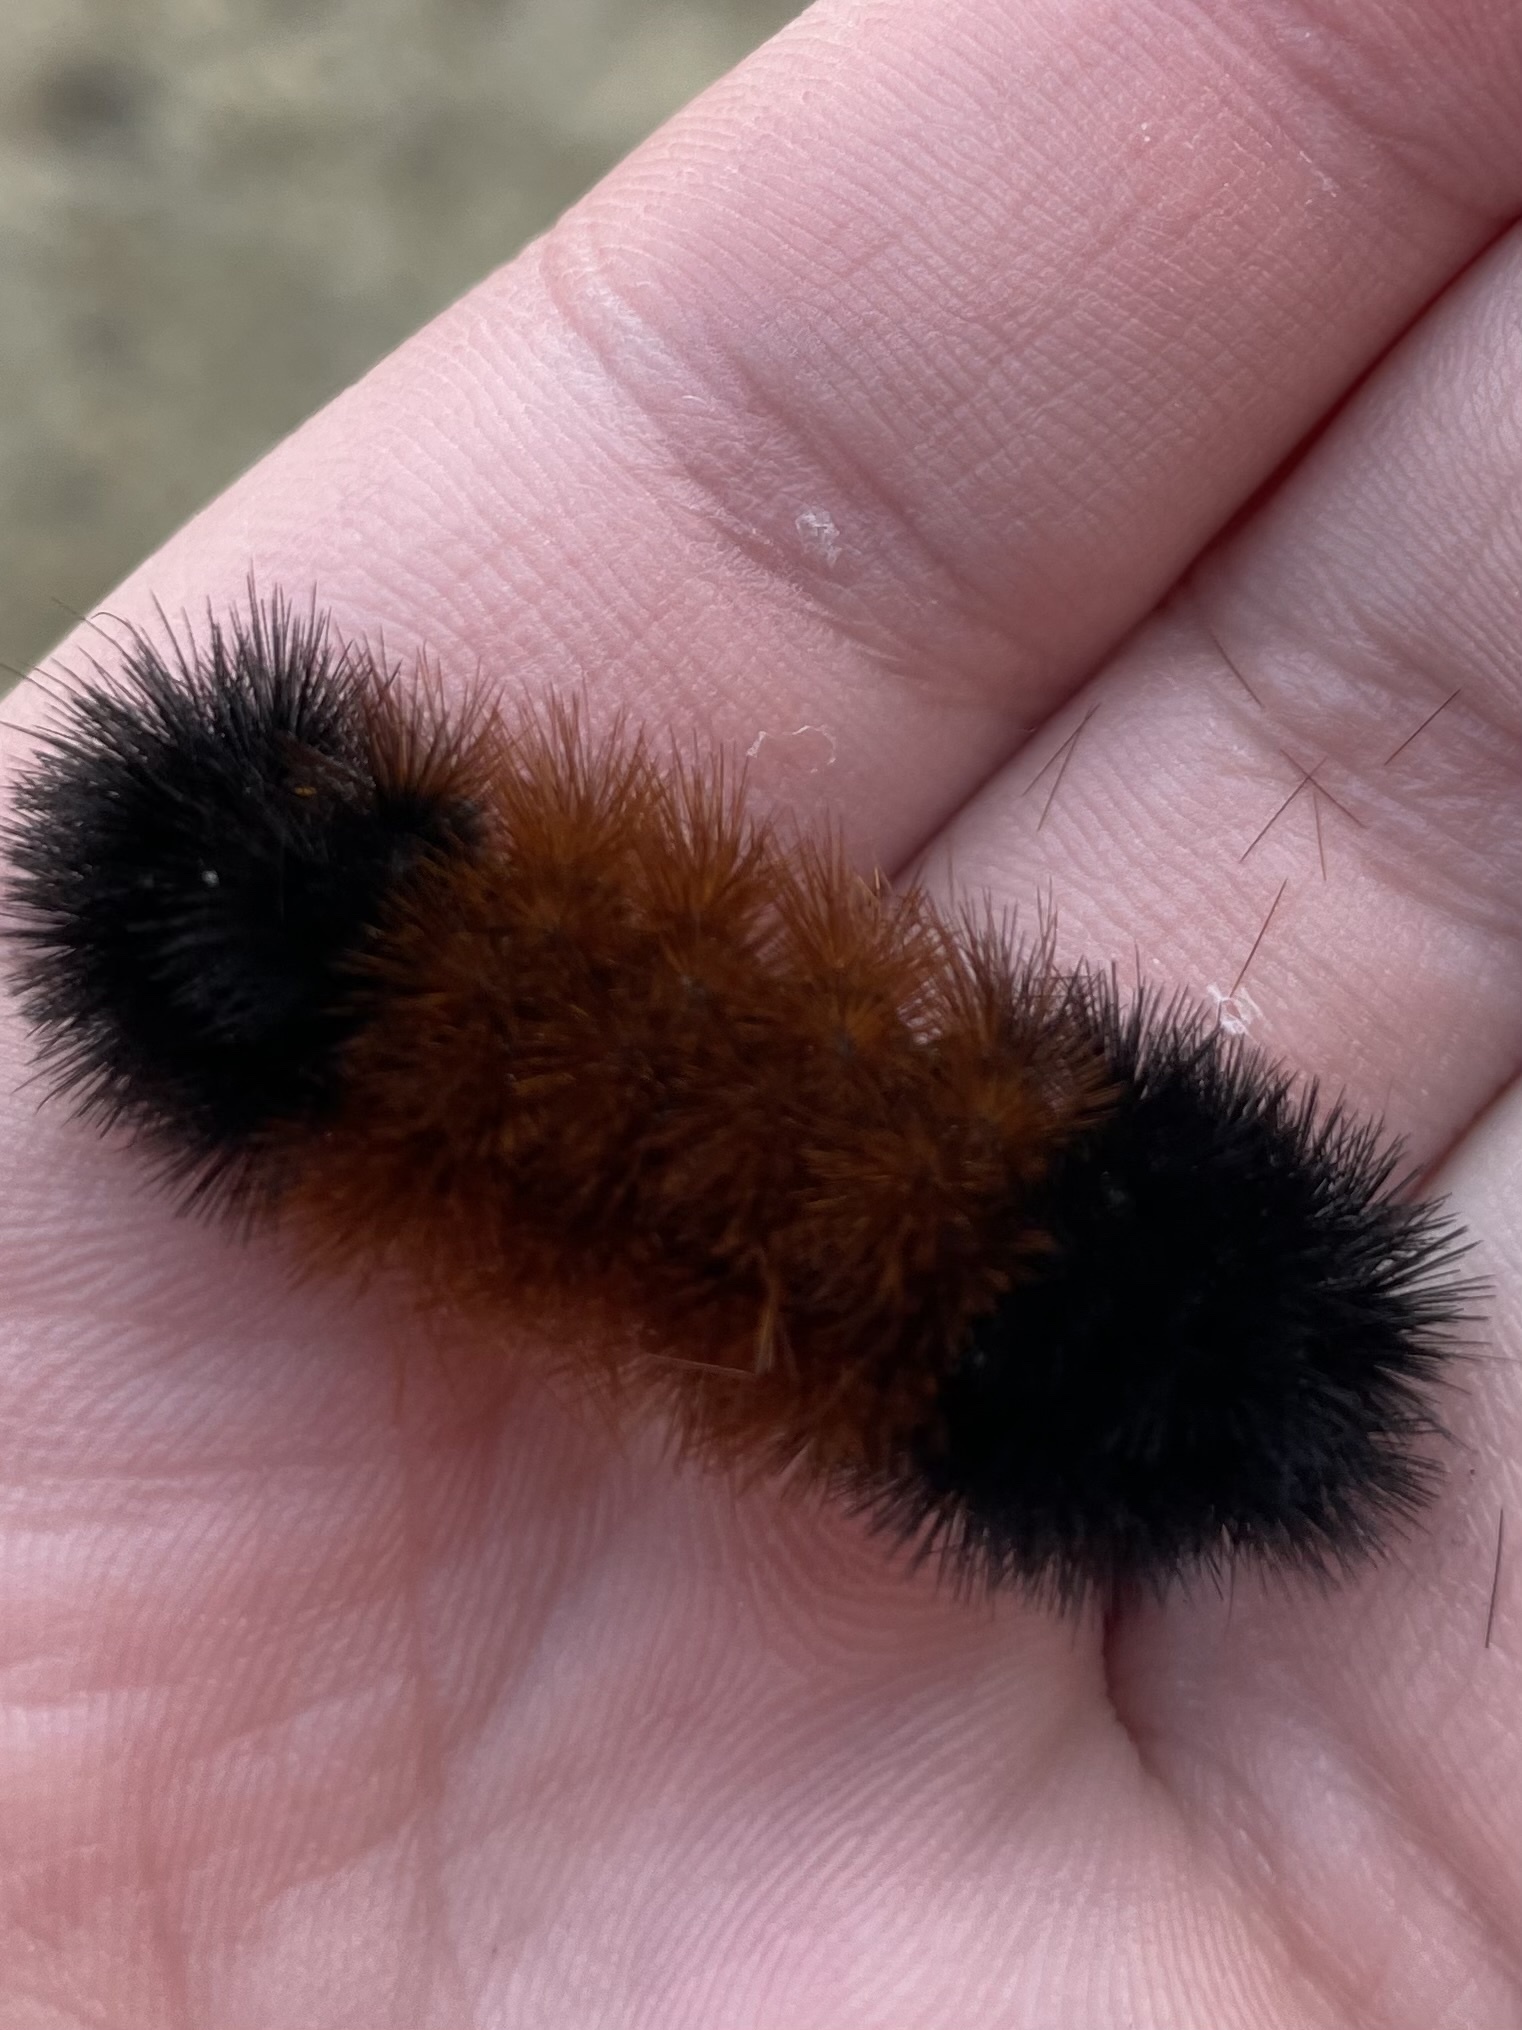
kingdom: Animalia
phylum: Arthropoda
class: Insecta
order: Lepidoptera
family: Erebidae
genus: Pyrrharctia
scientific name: Pyrrharctia isabella
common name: Isabella tiger moth
